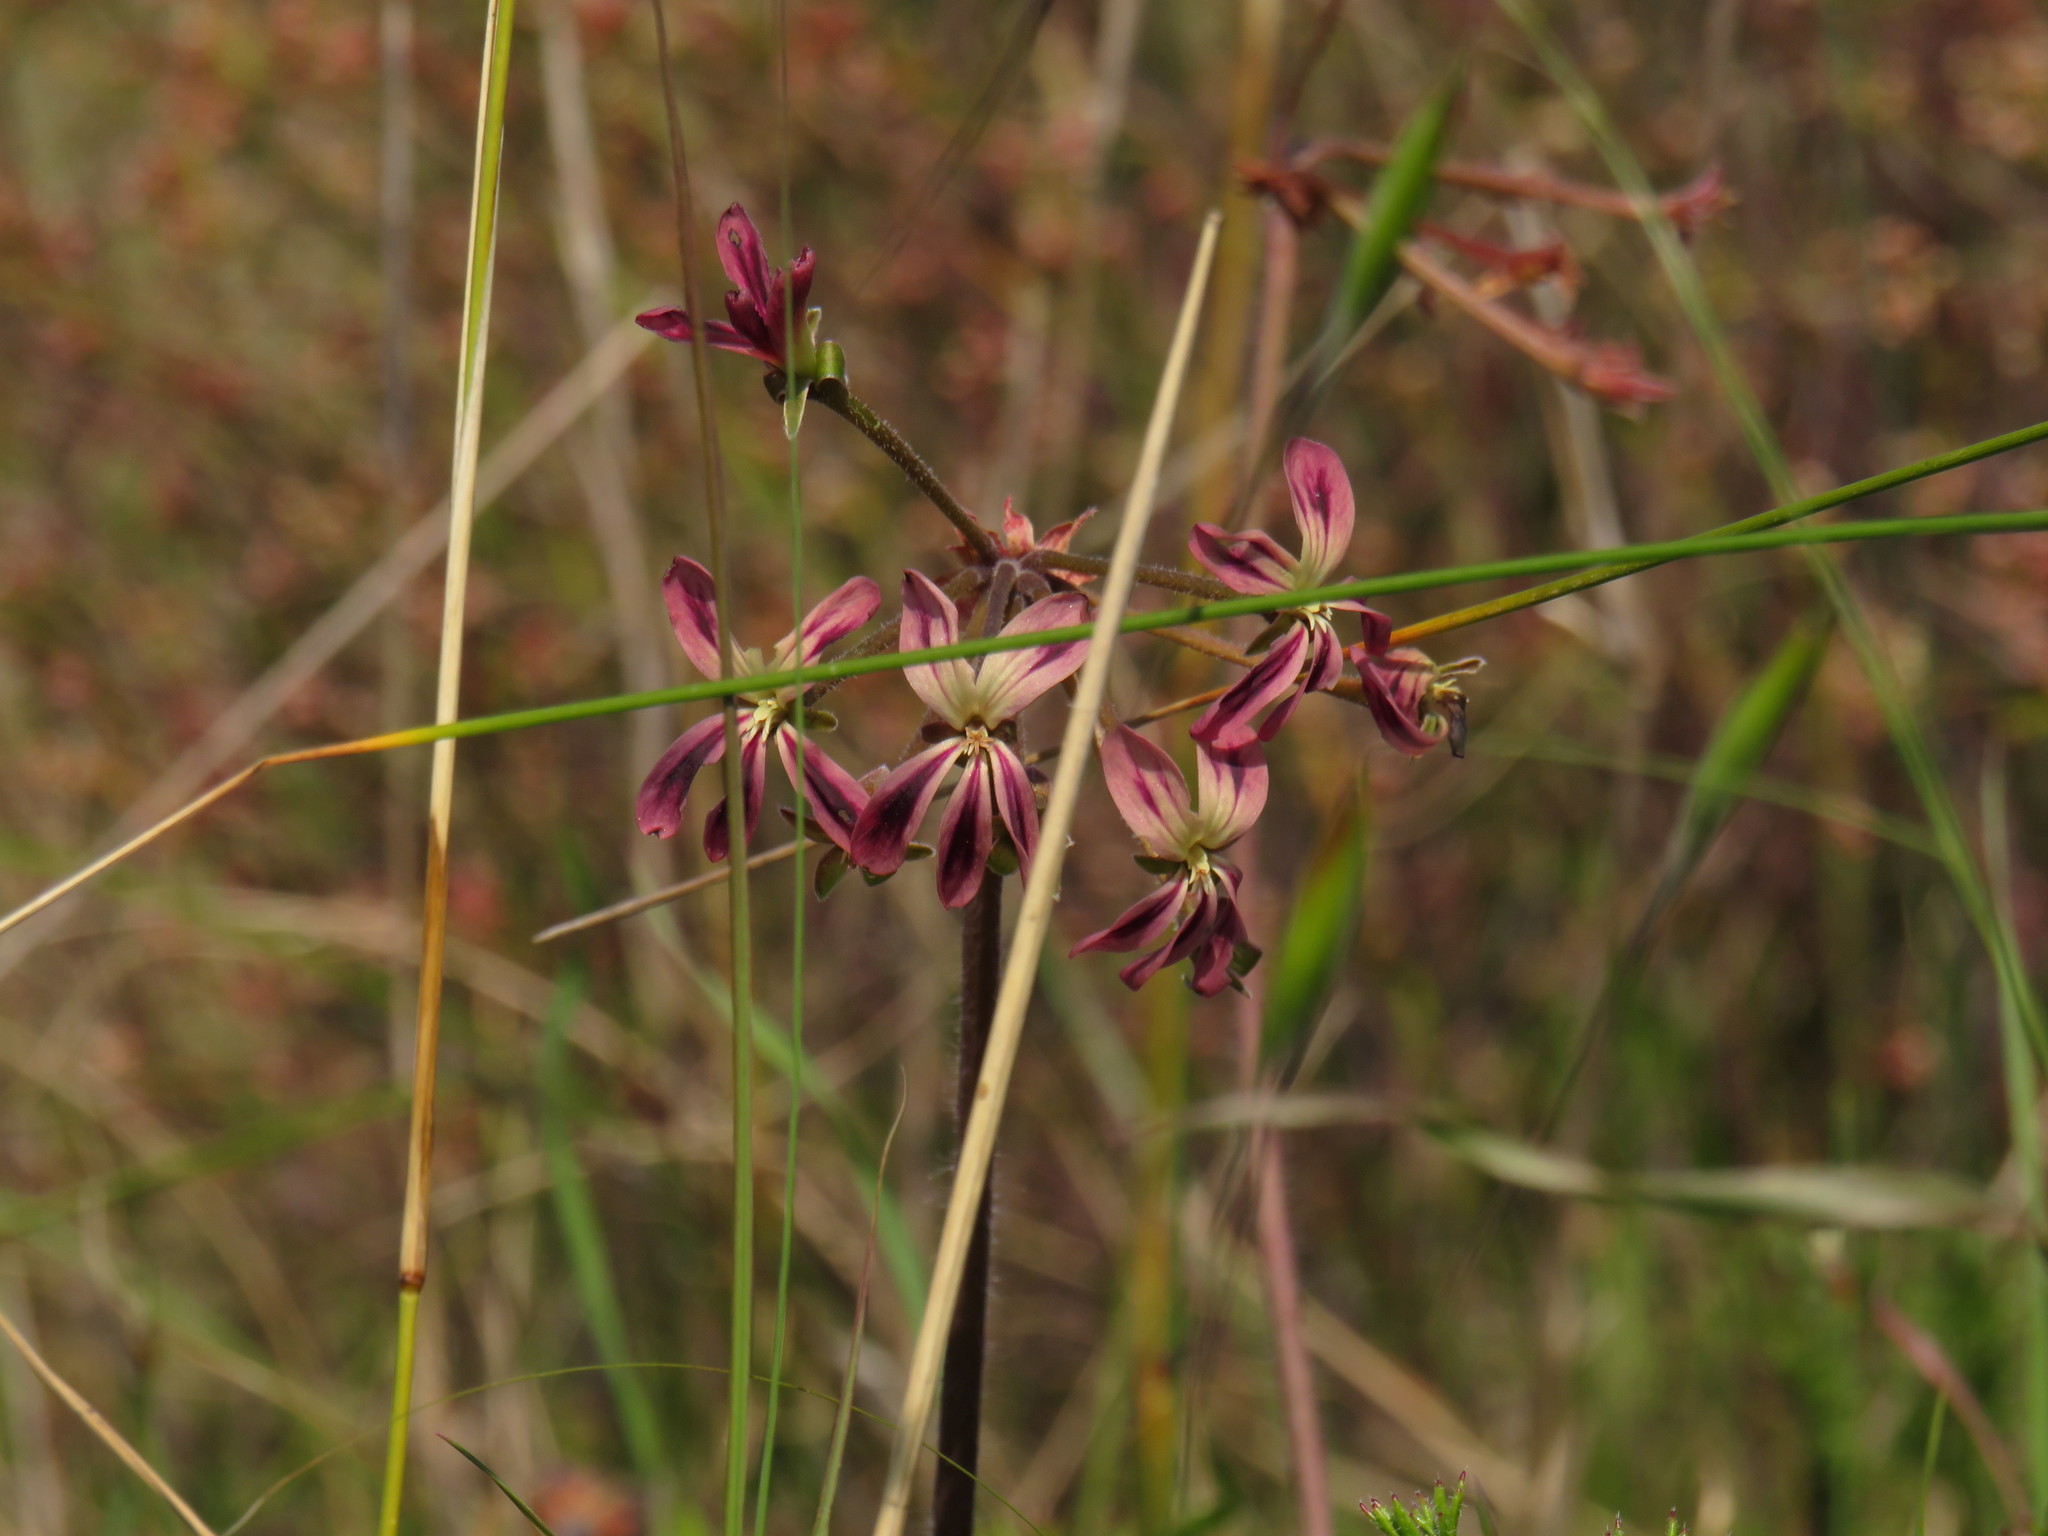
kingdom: Plantae
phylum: Tracheophyta
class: Magnoliopsida
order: Geraniales
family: Geraniaceae
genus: Pelargonium
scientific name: Pelargonium triste
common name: Night-scent pelargonium
